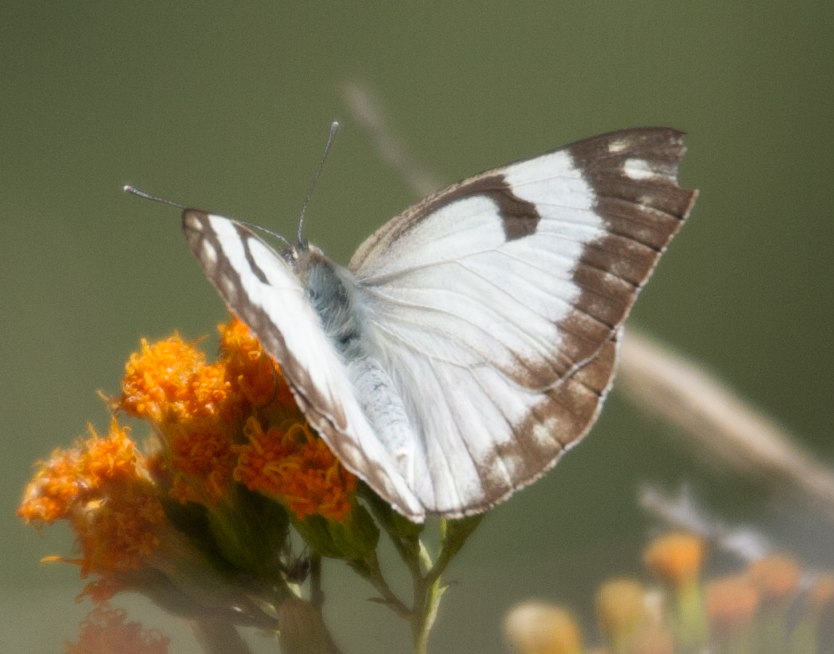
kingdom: Animalia
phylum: Arthropoda
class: Insecta
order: Lepidoptera
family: Pieridae
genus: Belenois
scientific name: Belenois aurota
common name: Brown-veined white
